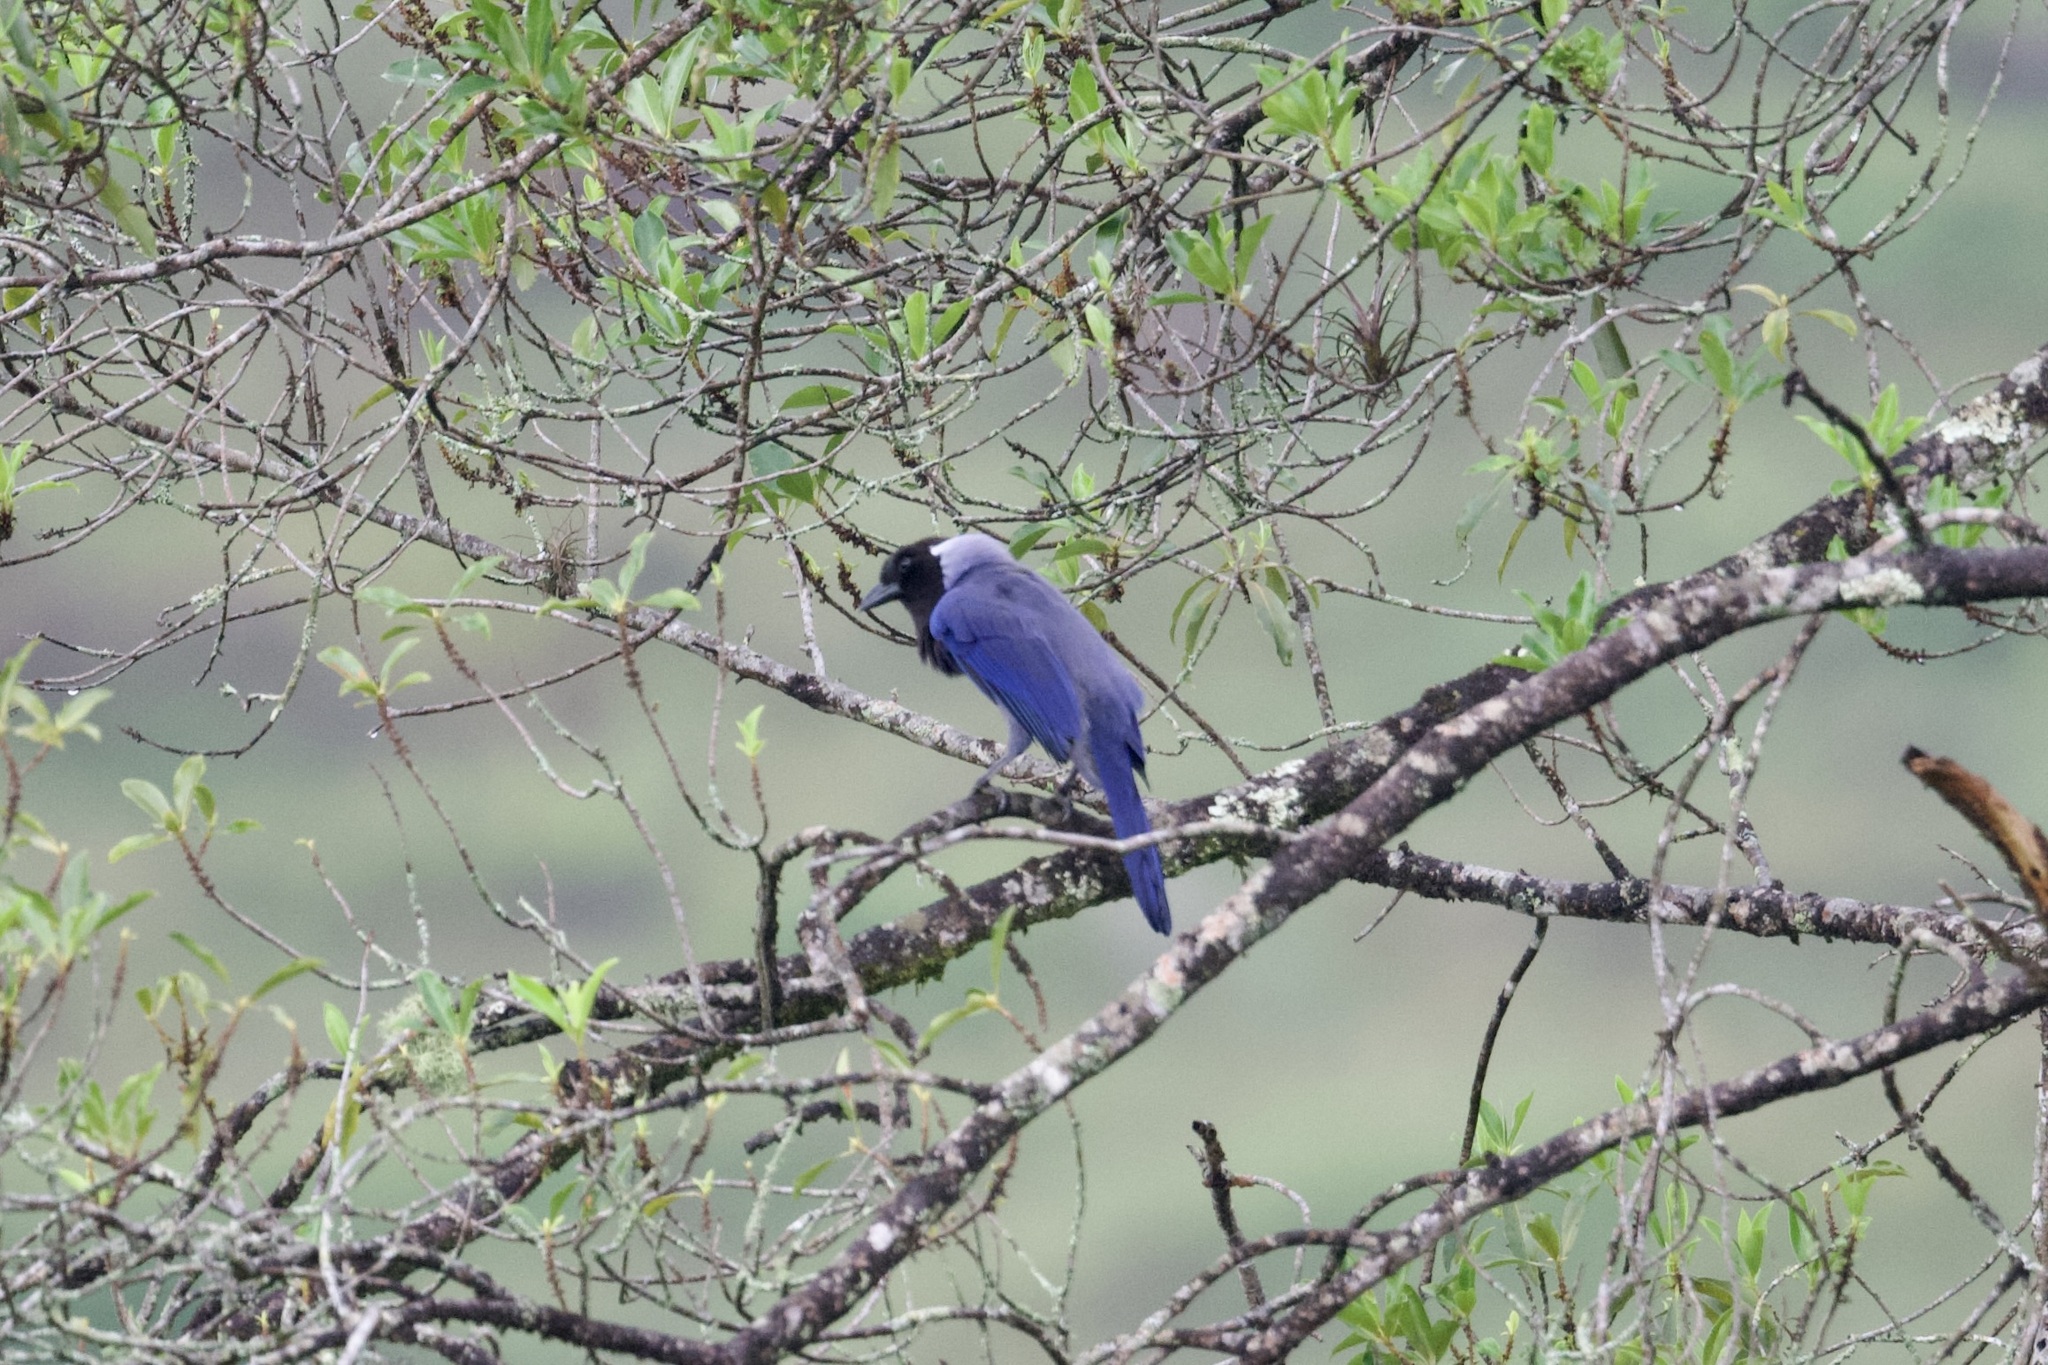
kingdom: Animalia
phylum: Chordata
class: Aves
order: Passeriformes
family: Corvidae
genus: Cyanocorax
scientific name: Cyanocorax violaceus
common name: Violaceous jay
